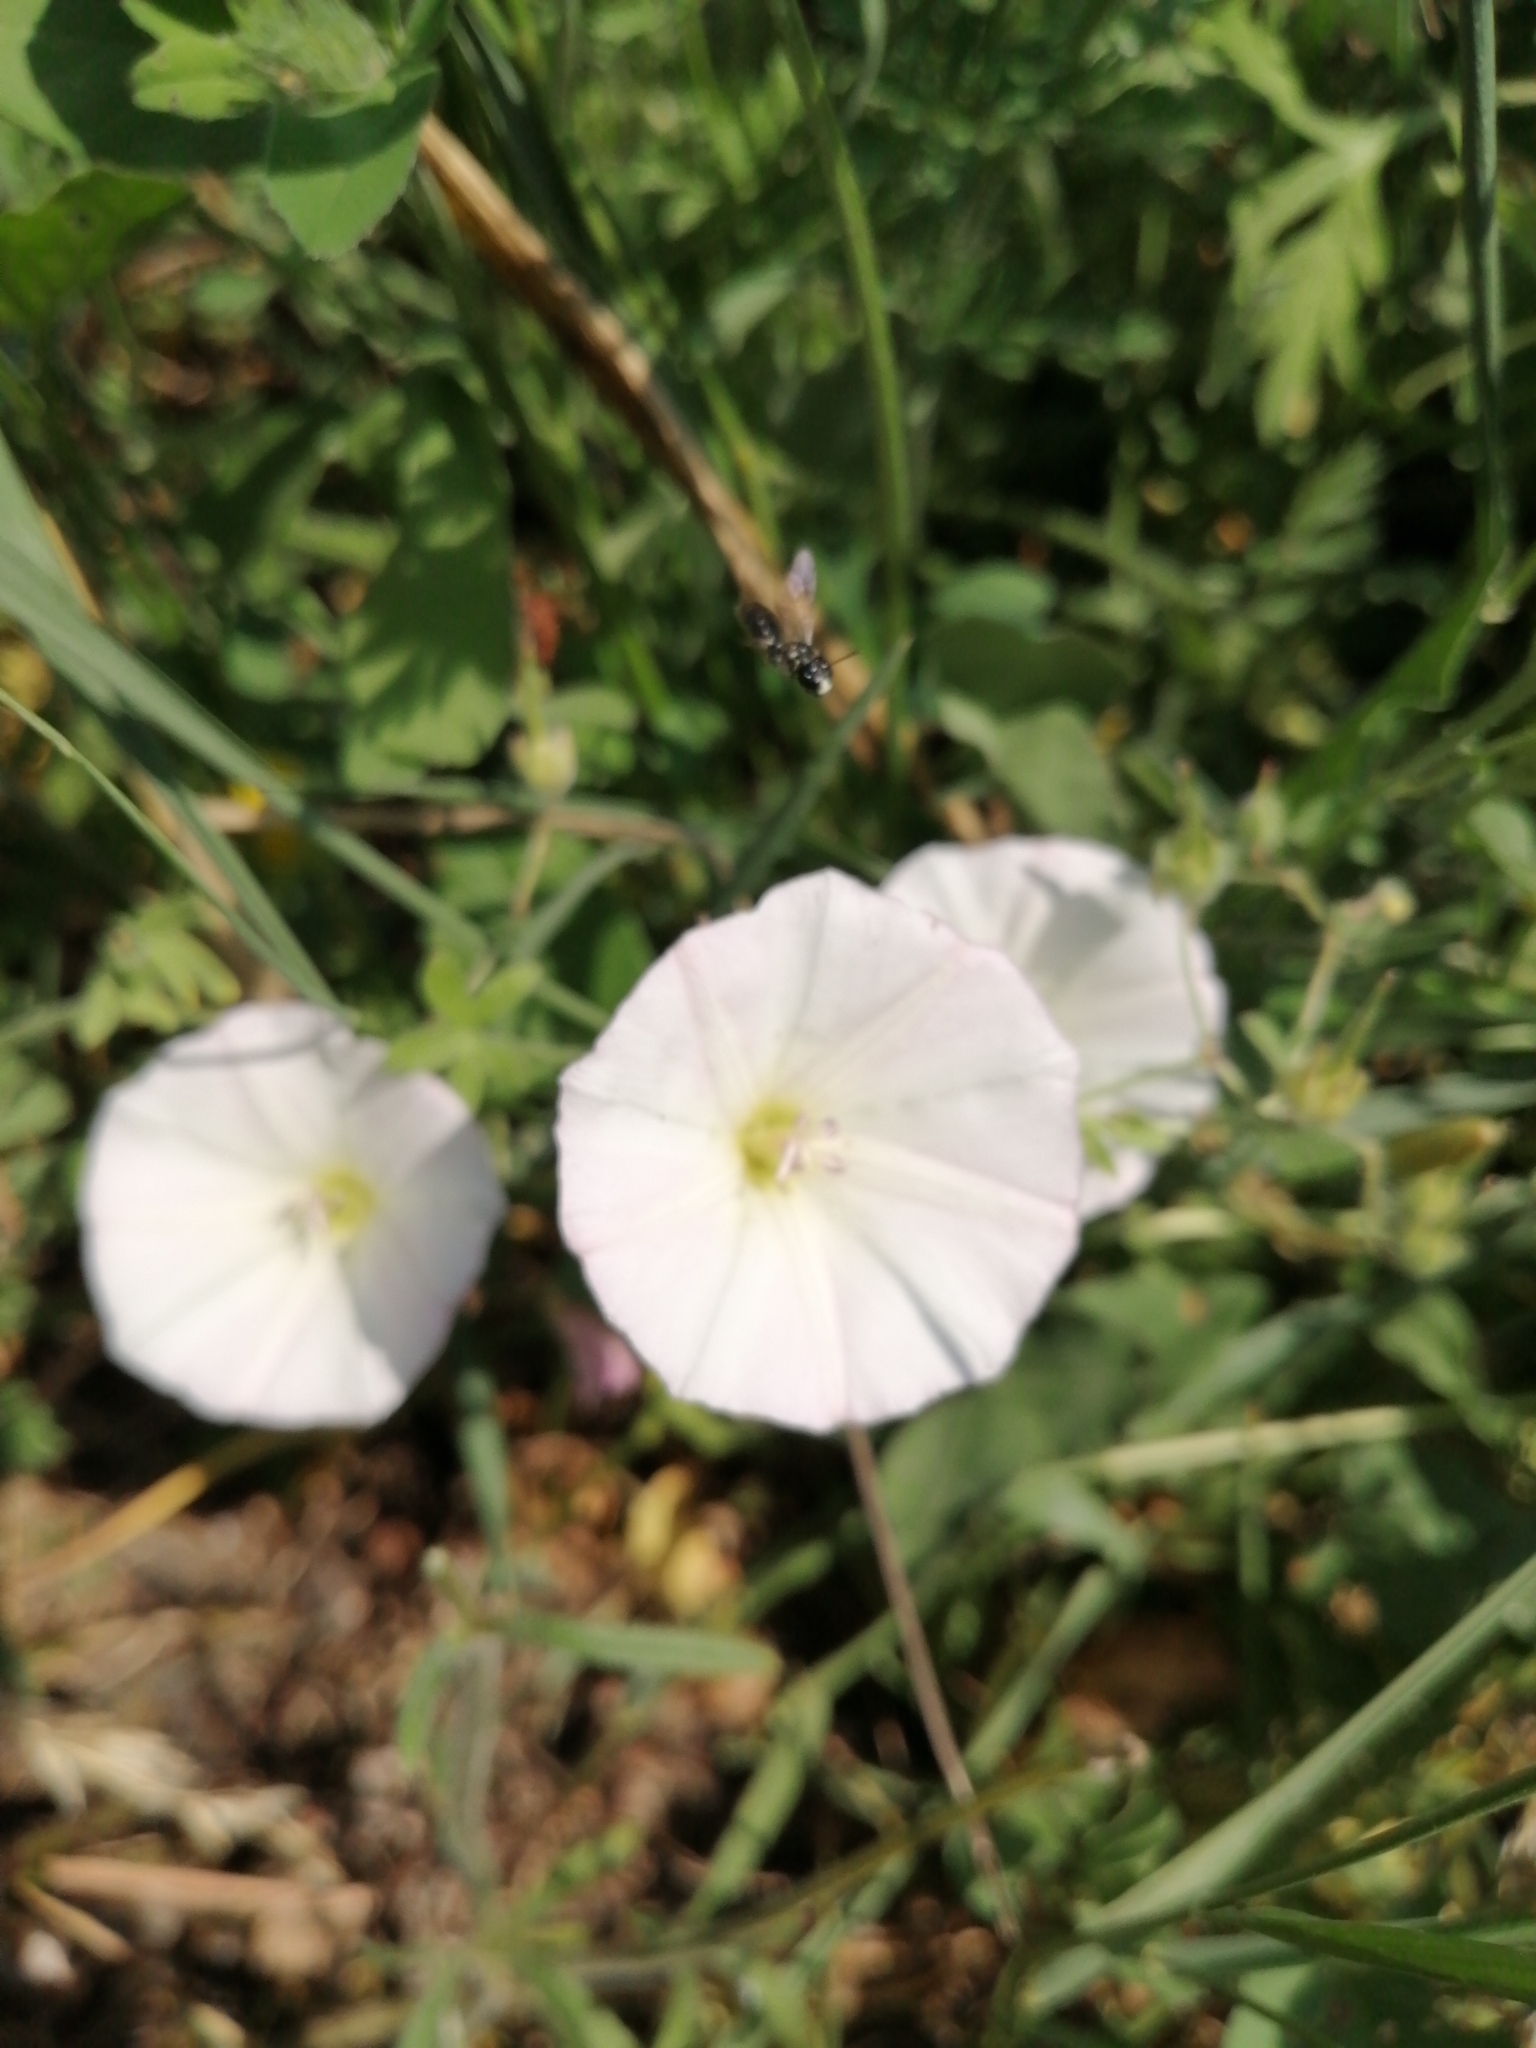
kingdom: Plantae
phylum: Tracheophyta
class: Magnoliopsida
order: Solanales
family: Convolvulaceae
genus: Convolvulus
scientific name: Convolvulus arvensis
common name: Field bindweed
